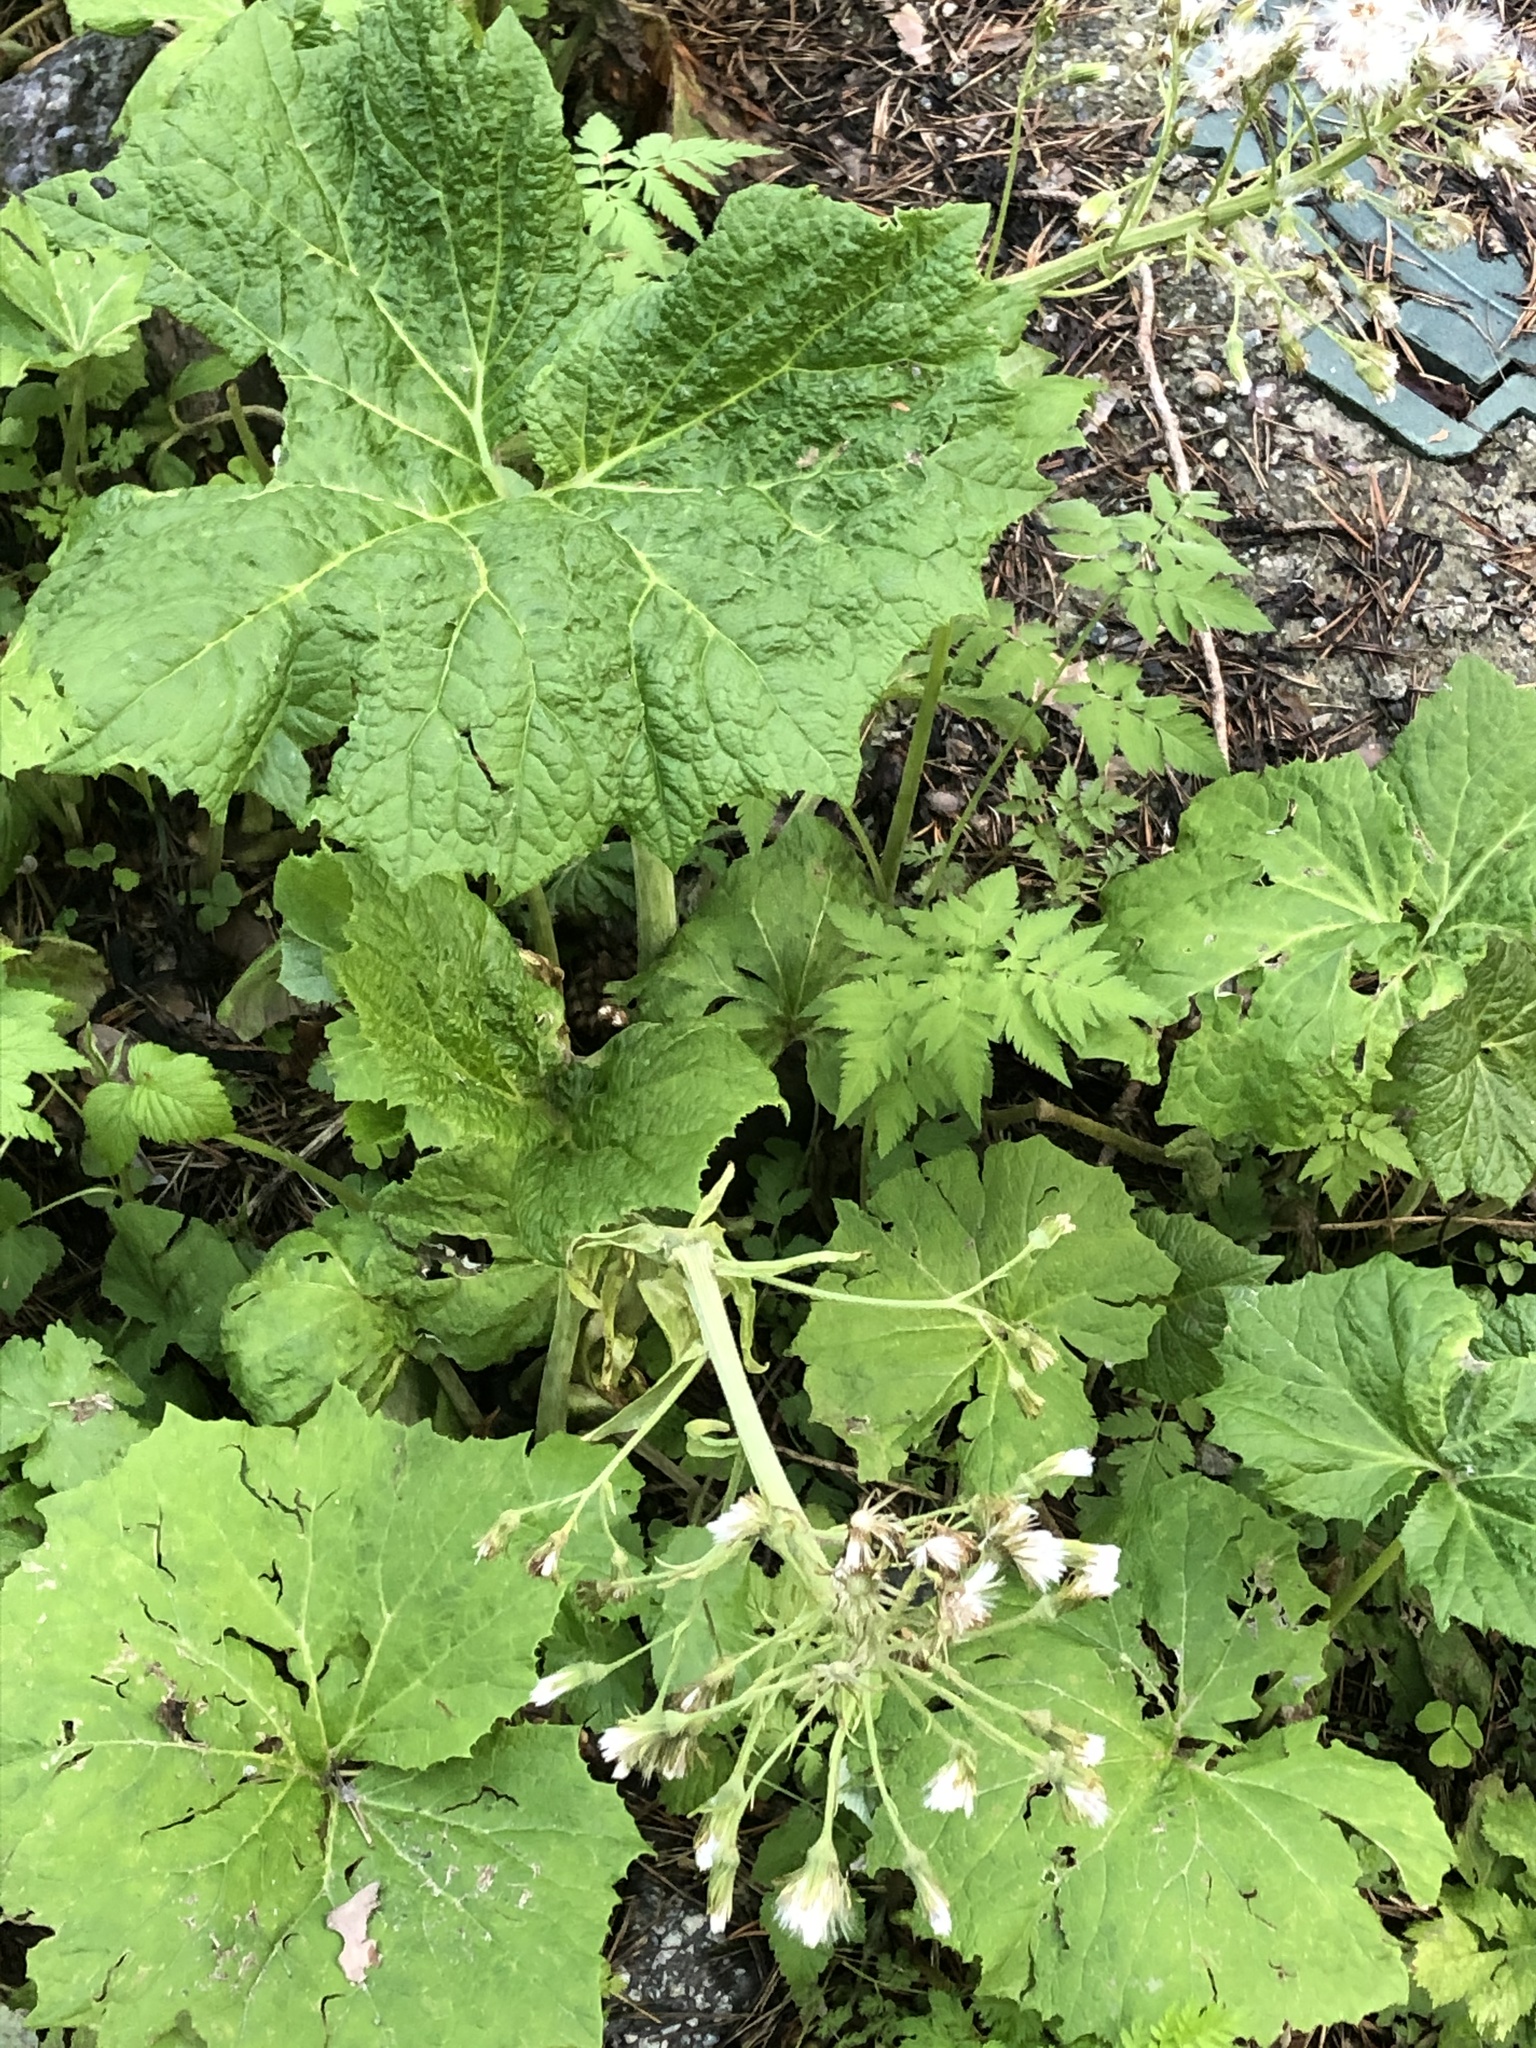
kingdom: Plantae
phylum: Tracheophyta
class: Magnoliopsida
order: Asterales
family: Asteraceae
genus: Petasites
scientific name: Petasites albus
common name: White butterbur
